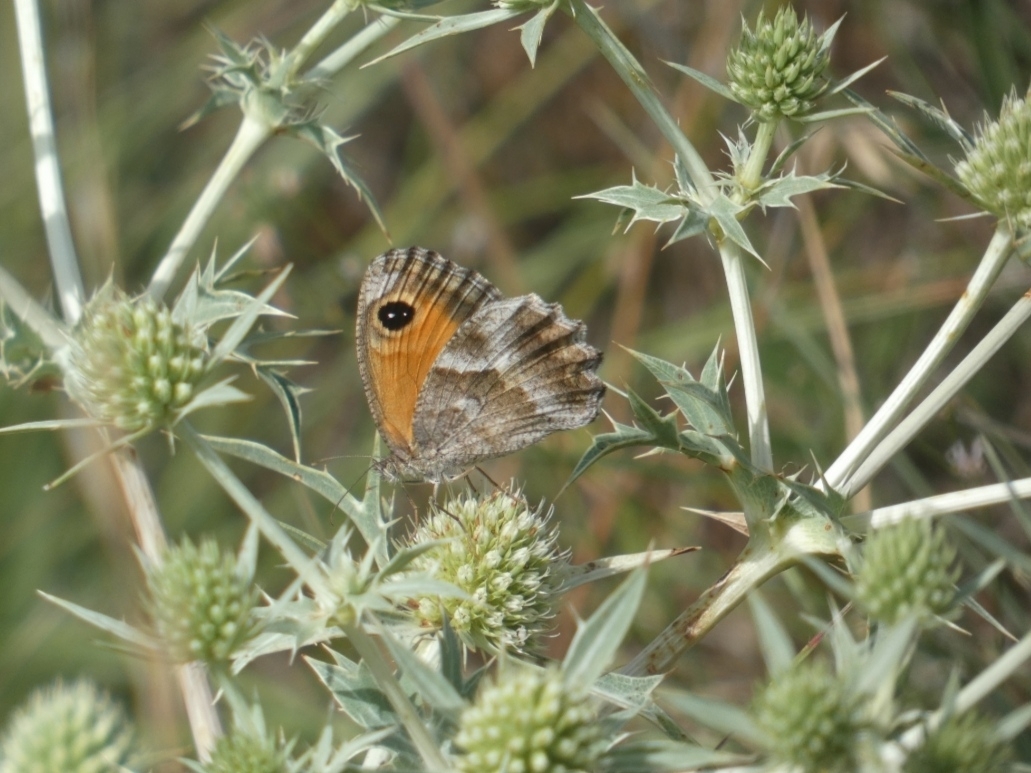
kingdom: Animalia
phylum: Arthropoda
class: Insecta
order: Lepidoptera
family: Nymphalidae
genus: Pyronia
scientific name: Pyronia cecilia
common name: Southern gatekeeper
